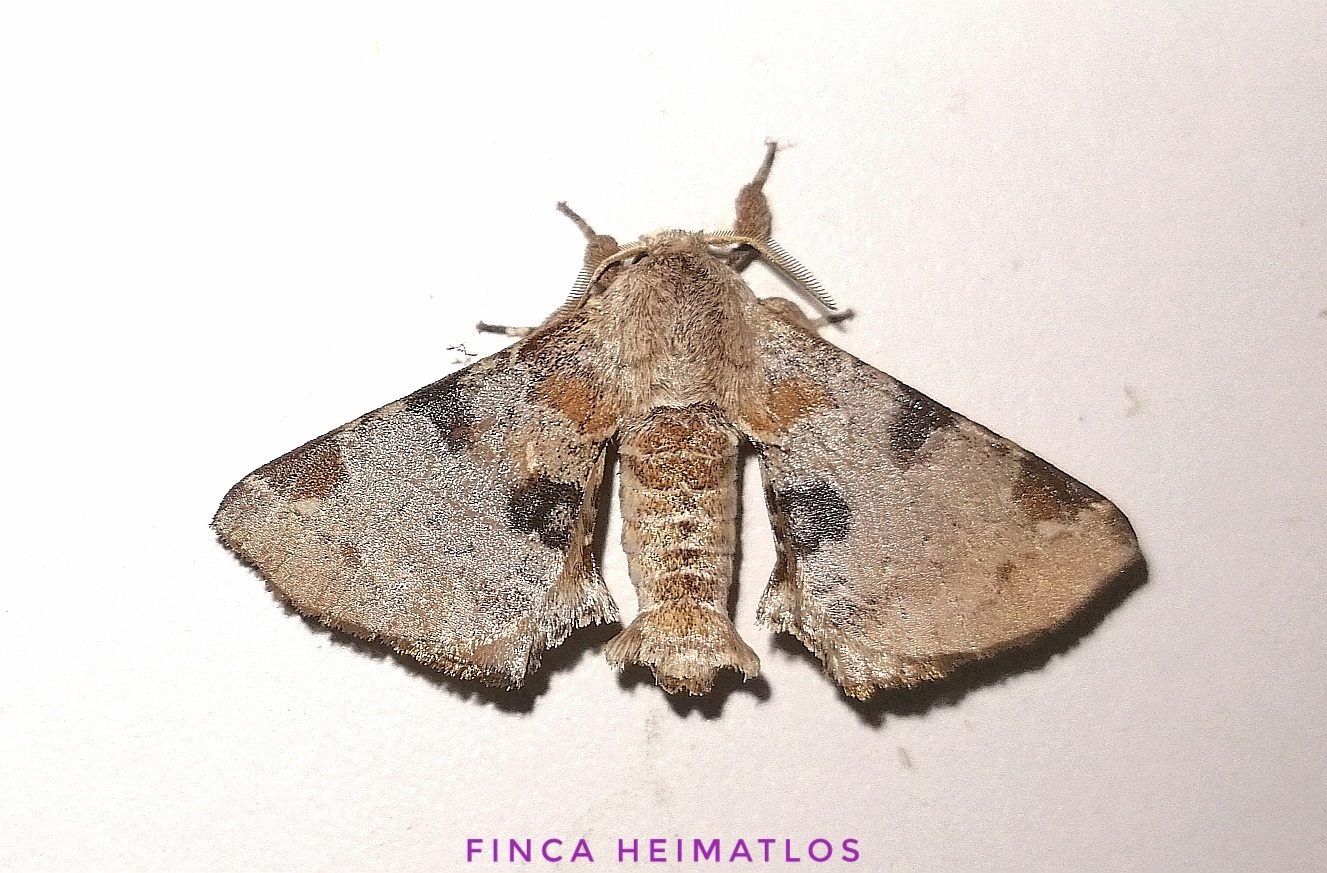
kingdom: Animalia
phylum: Arthropoda
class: Insecta
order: Lepidoptera
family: Apatelodidae
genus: Hygrochroa
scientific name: Hygrochroa nina
